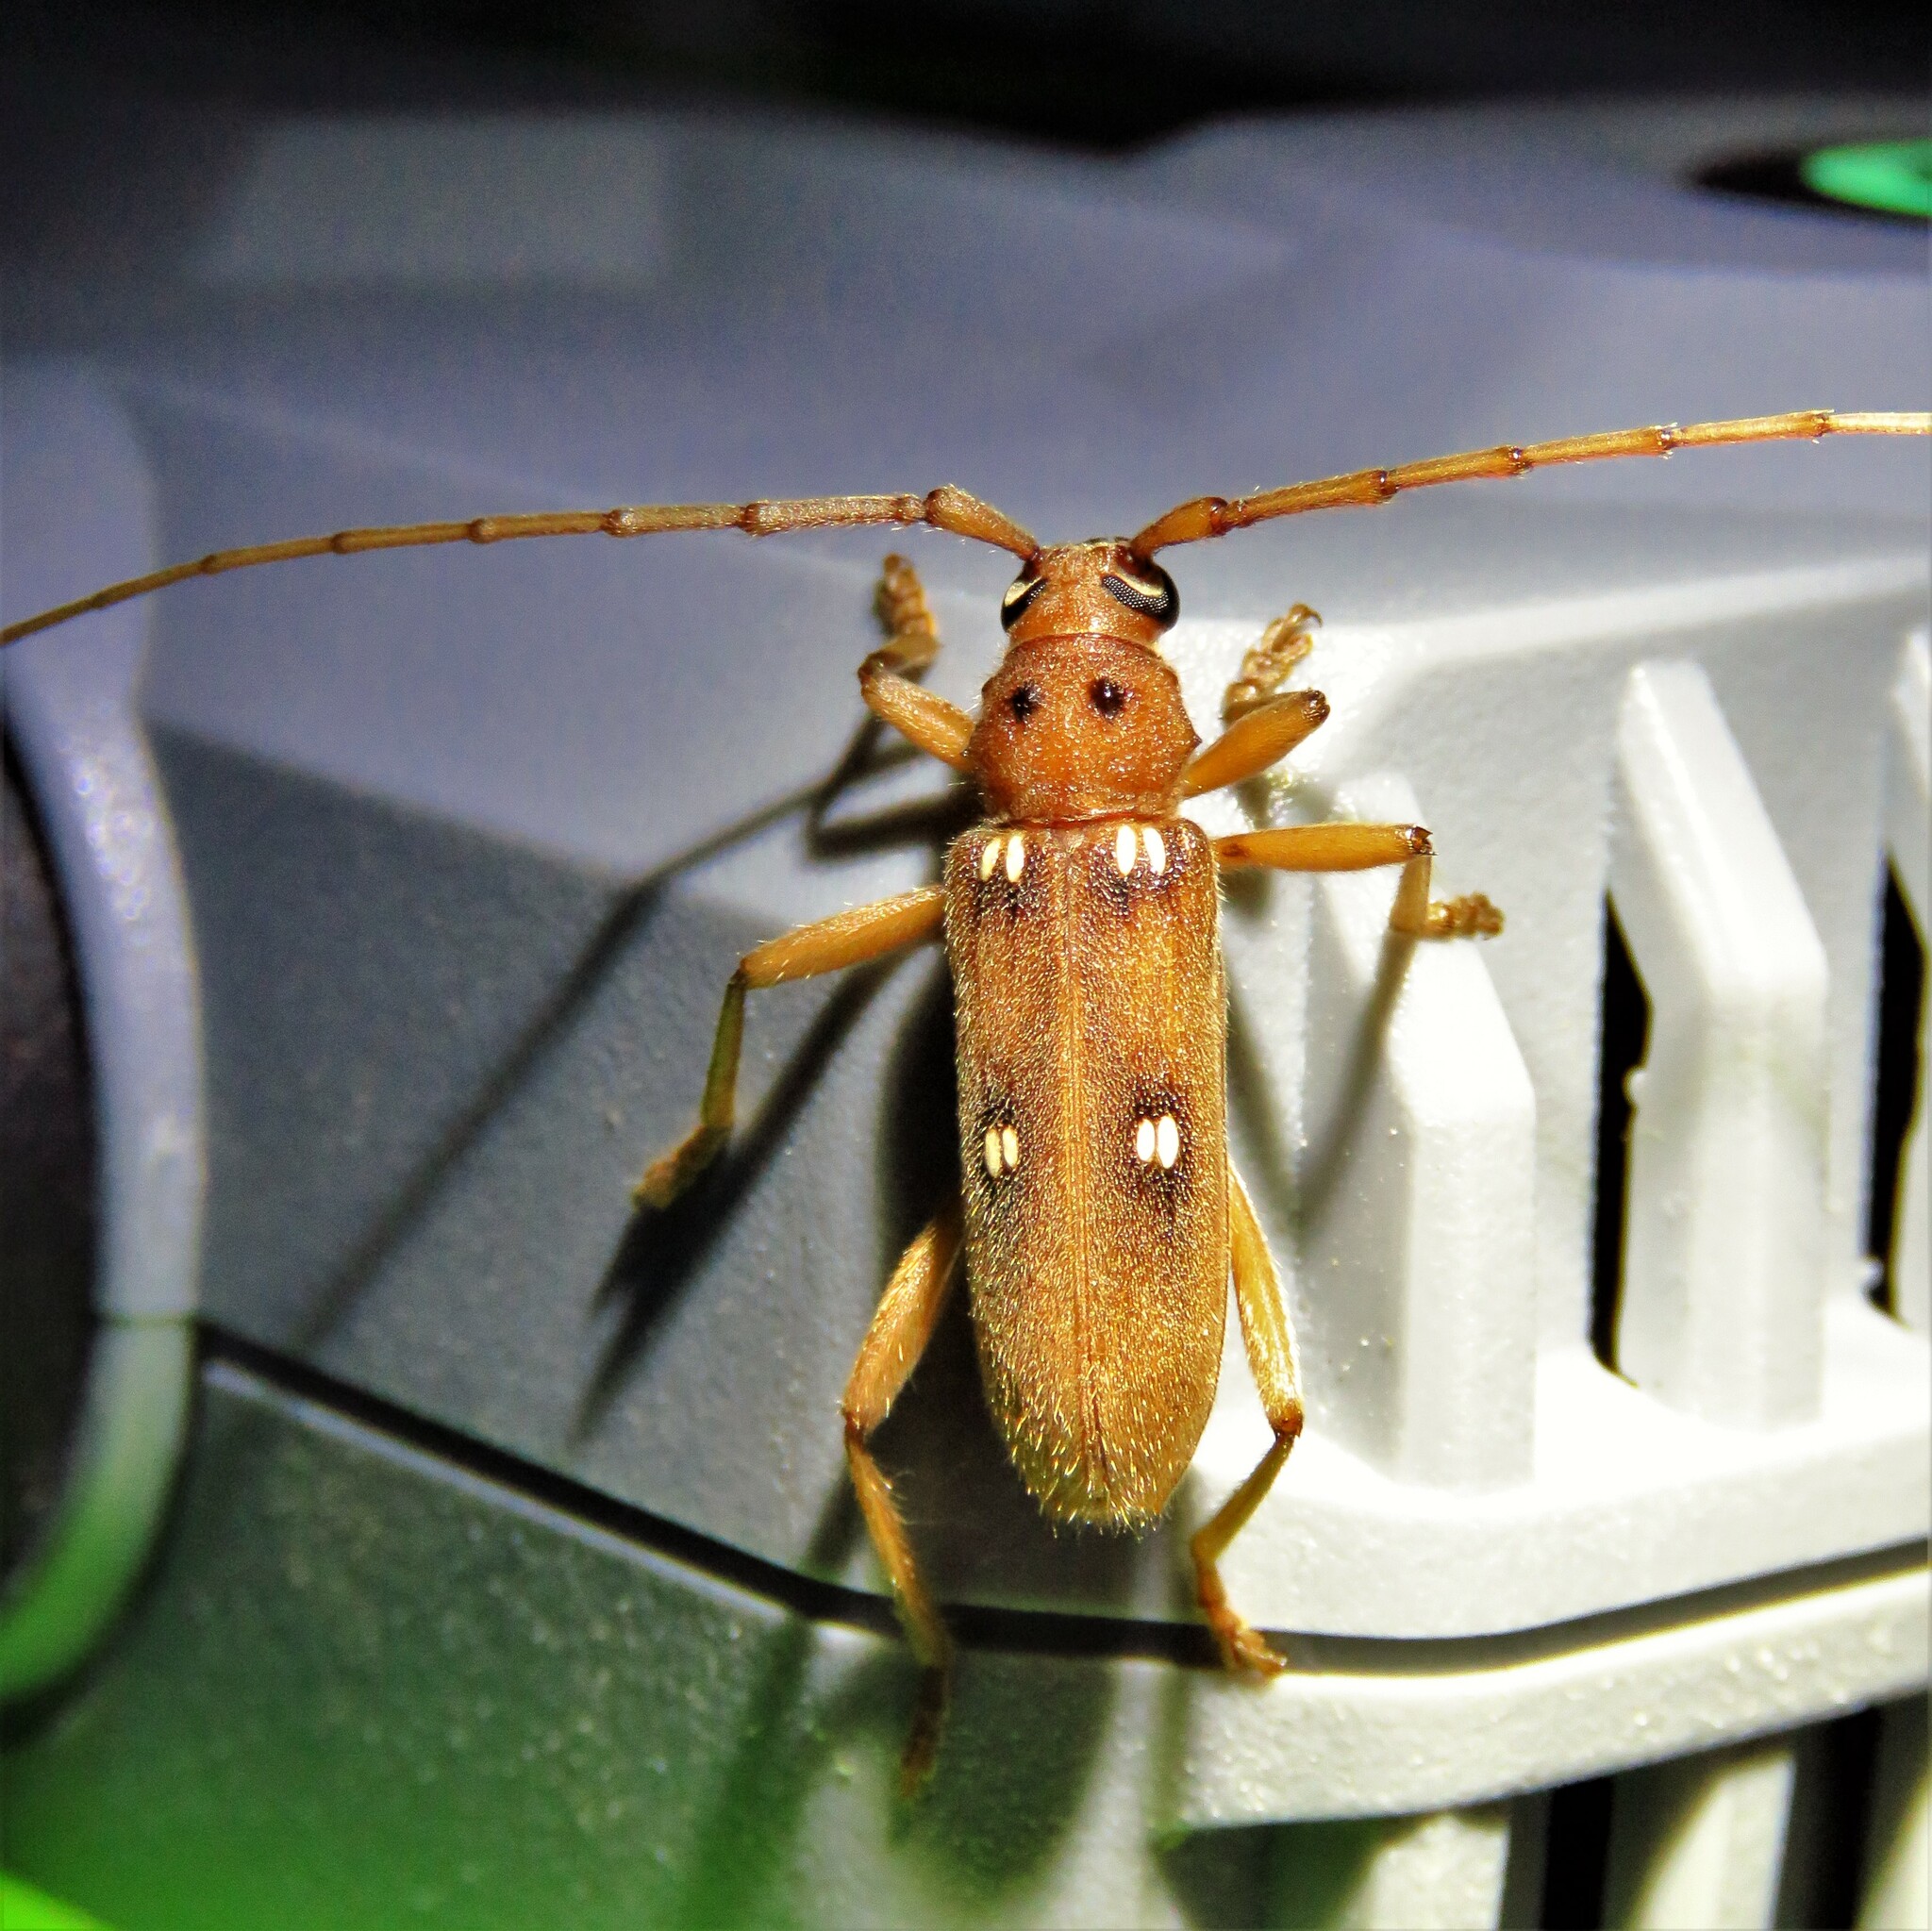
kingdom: Animalia
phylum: Arthropoda
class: Insecta
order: Coleoptera
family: Cerambycidae
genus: Eburia
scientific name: Eburia haldemani
